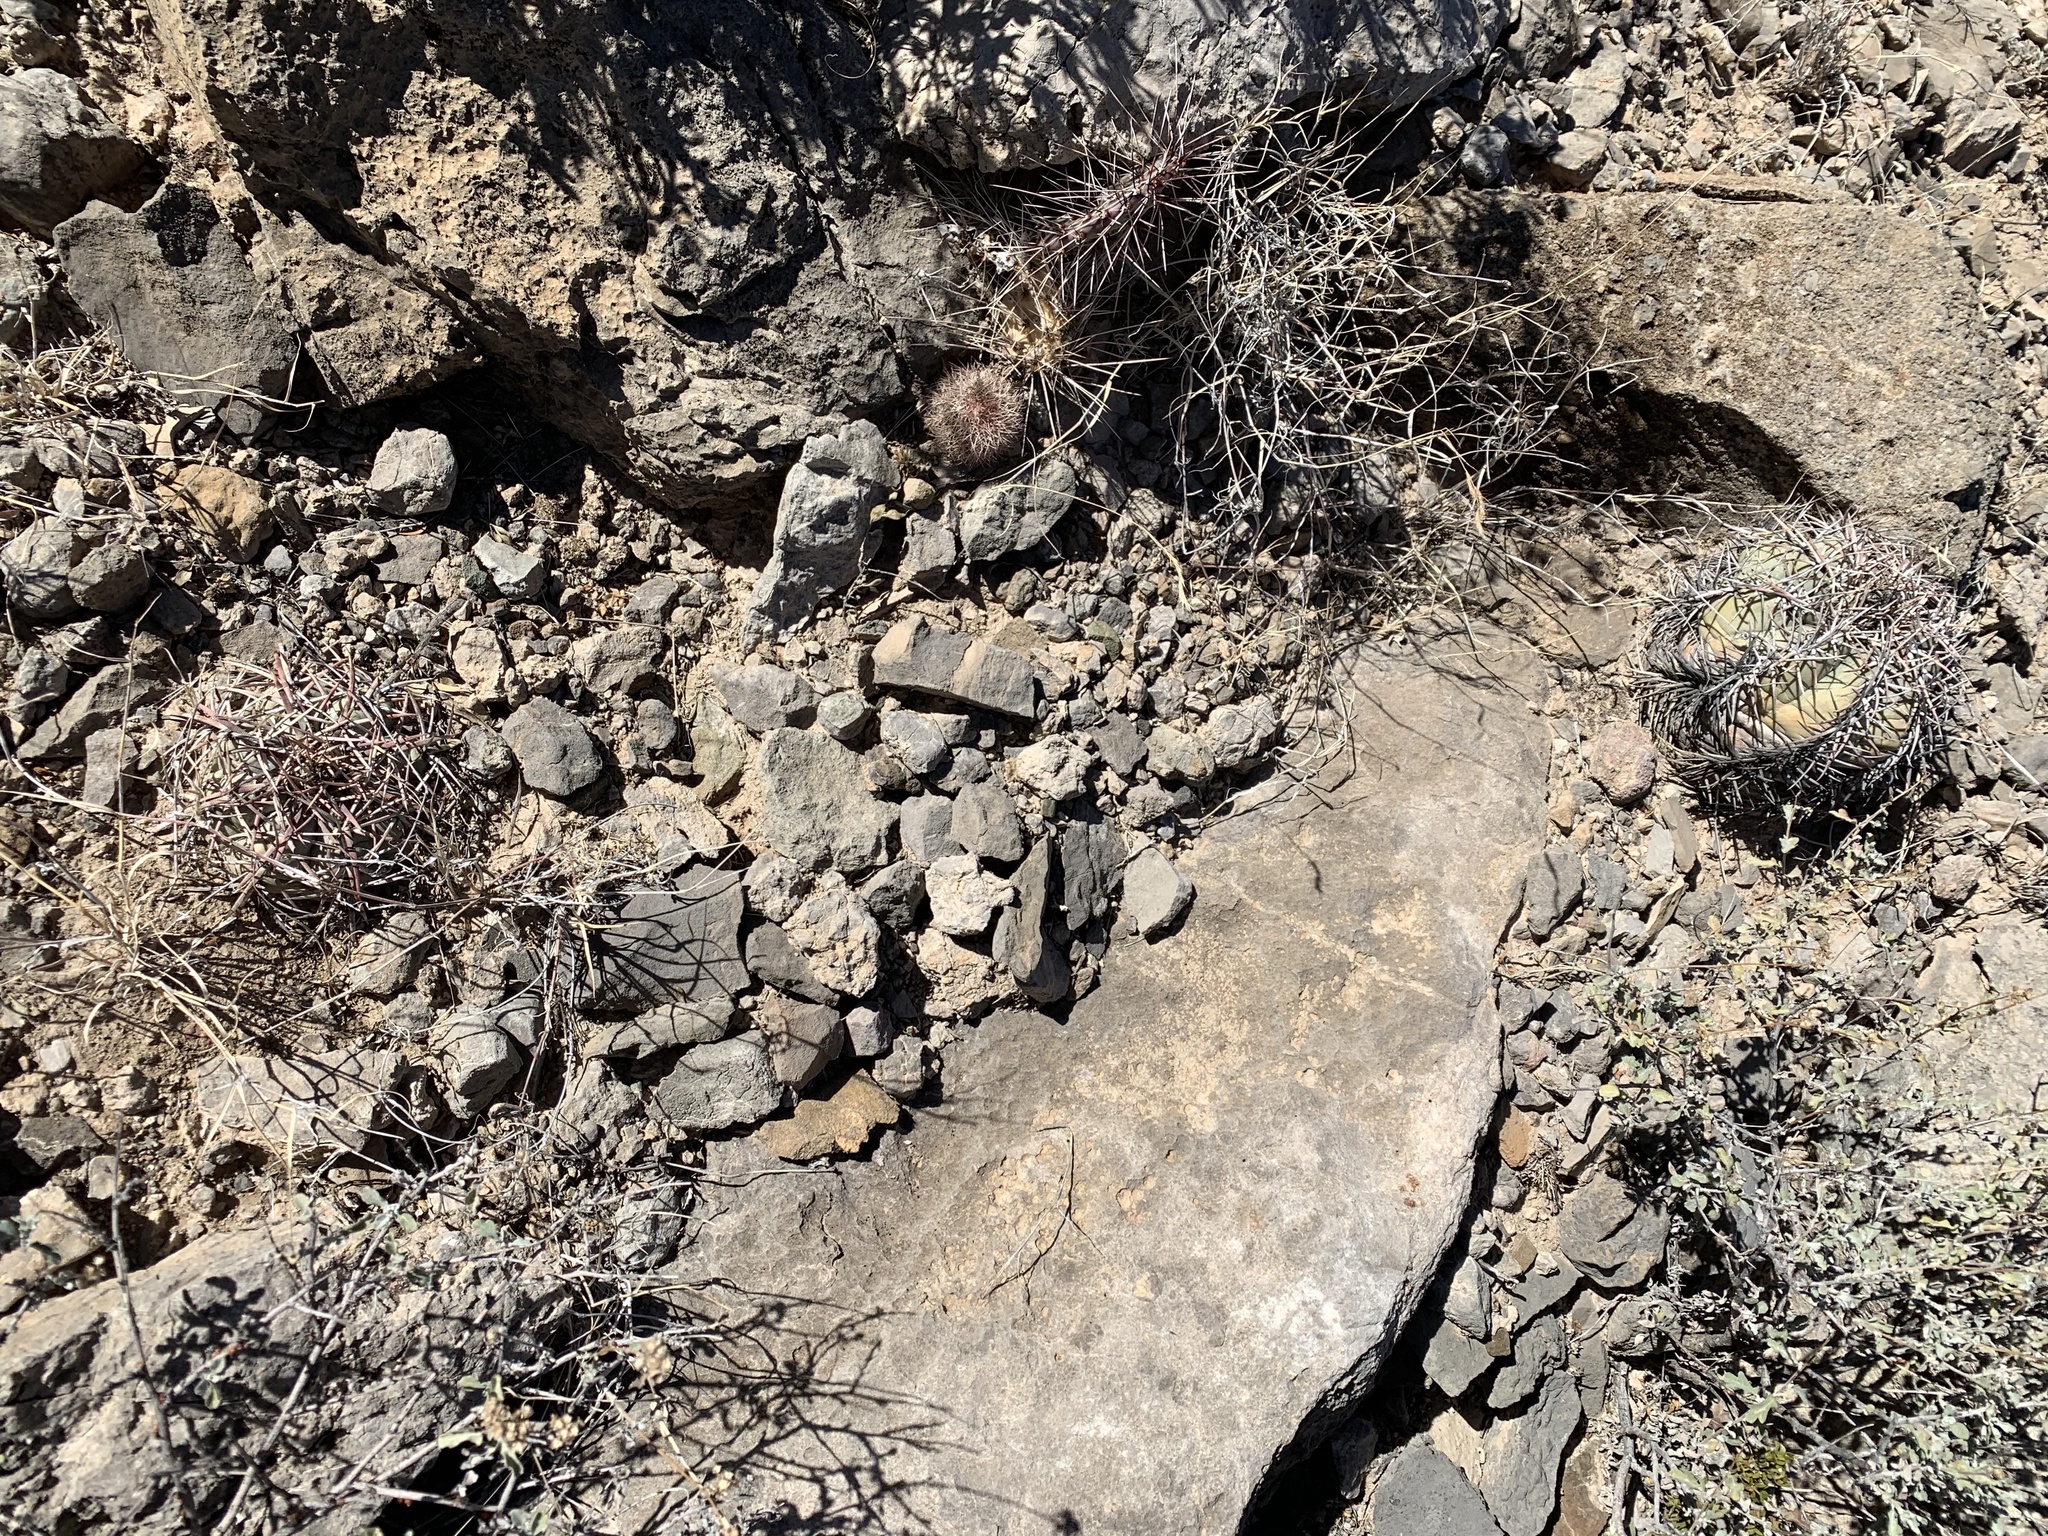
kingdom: Plantae
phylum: Tracheophyta
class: Magnoliopsida
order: Caryophyllales
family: Cactaceae
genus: Echinocactus
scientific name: Echinocactus horizonthalonius
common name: Devilshead
